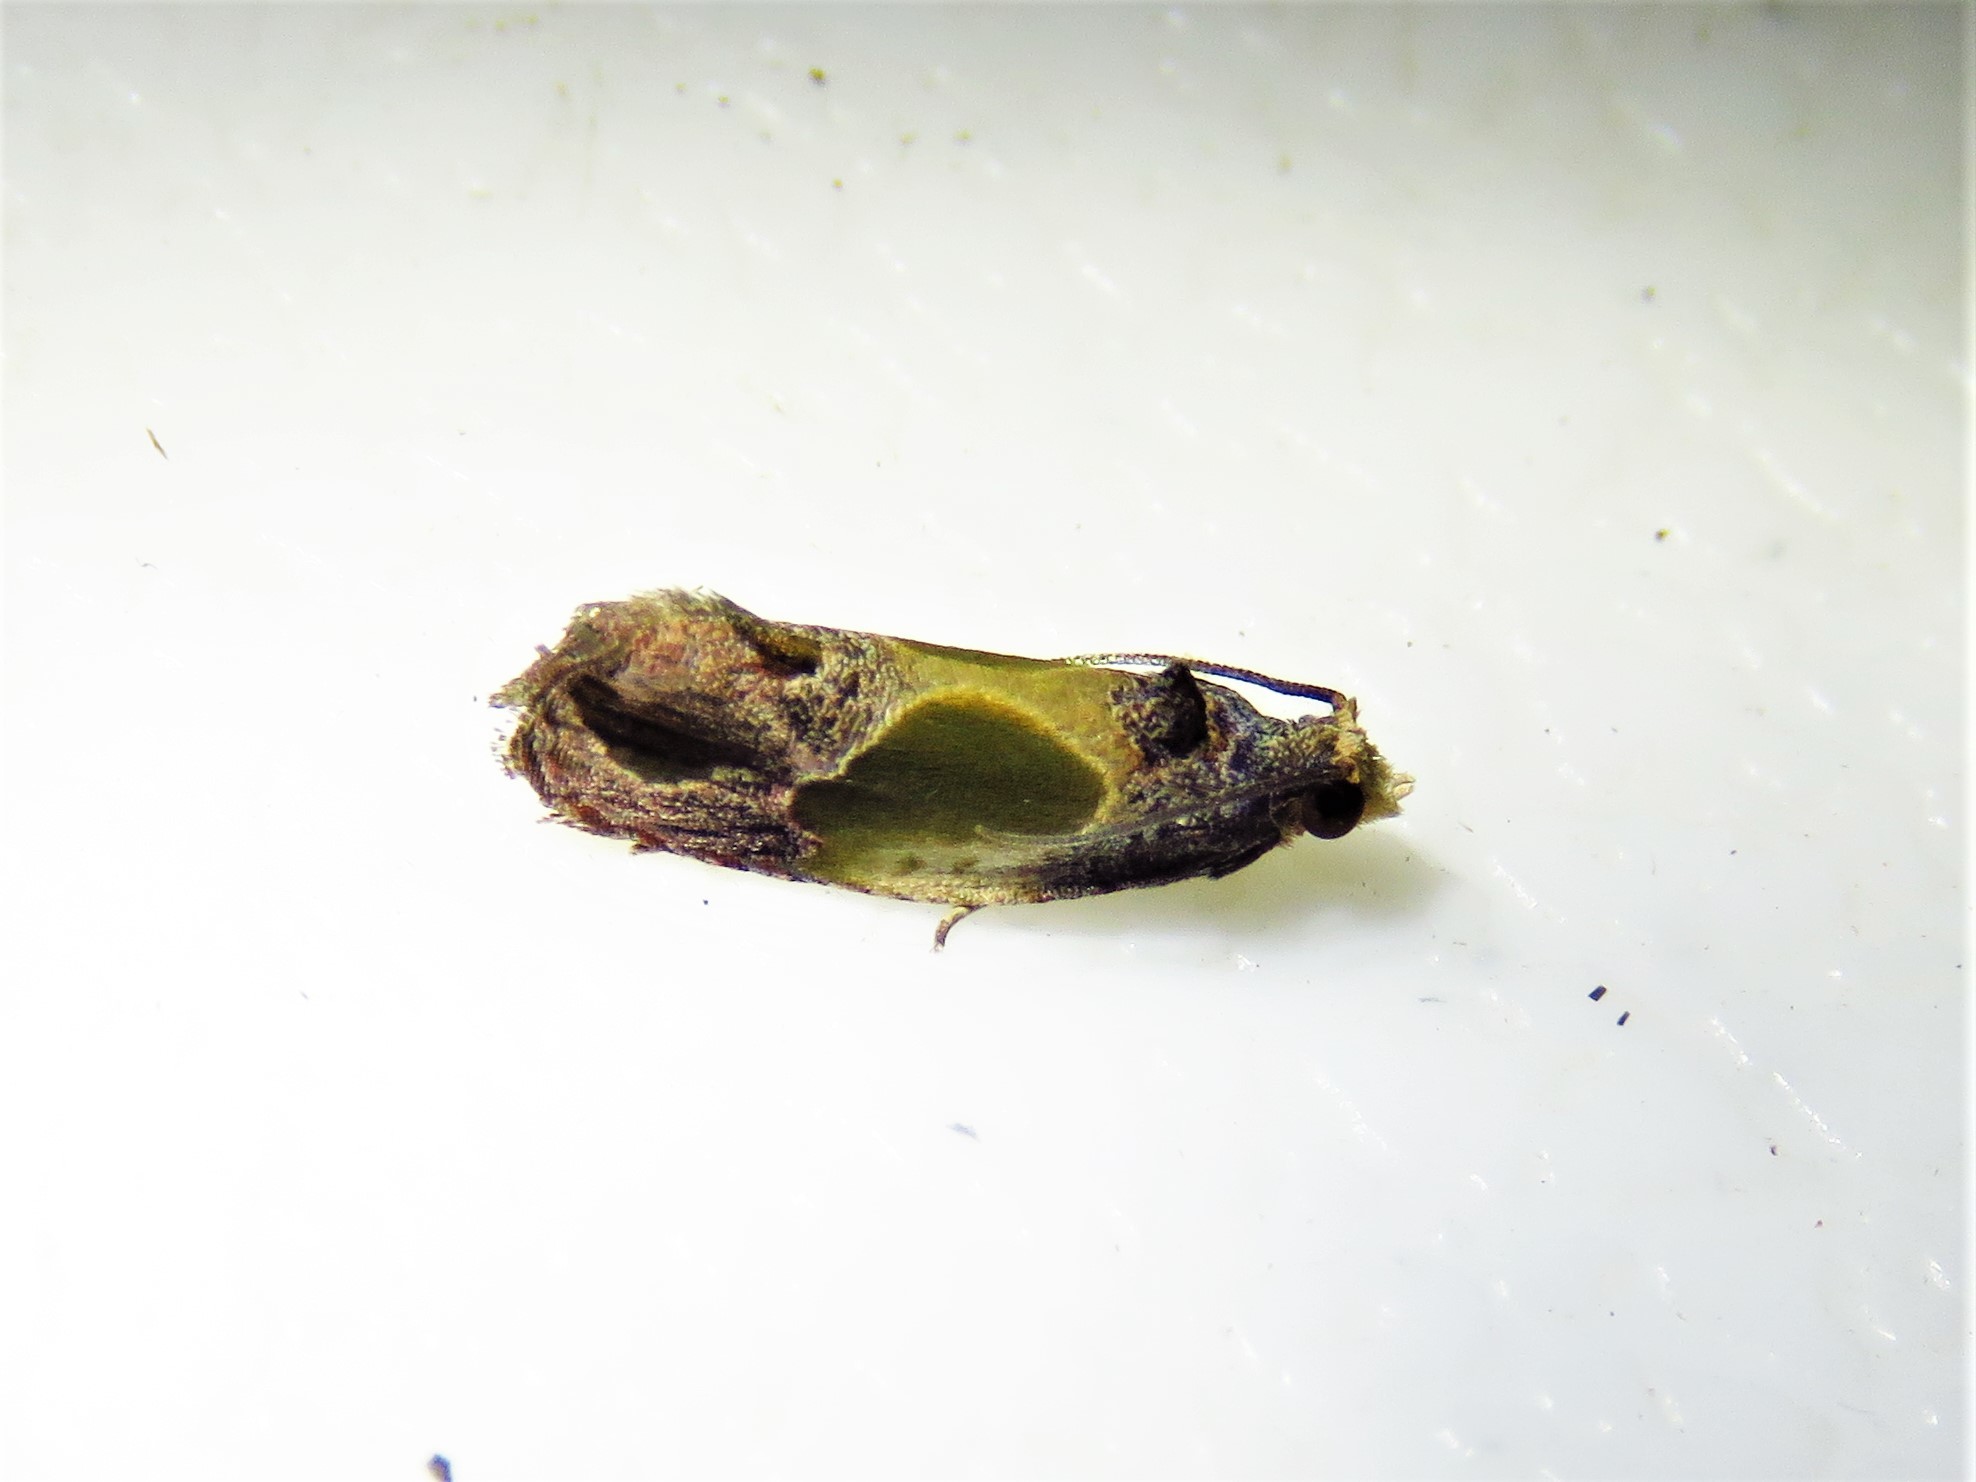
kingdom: Animalia
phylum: Arthropoda
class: Insecta
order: Lepidoptera
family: Tortricidae
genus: Eumarozia
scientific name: Eumarozia malachitana
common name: Sculptured moth
